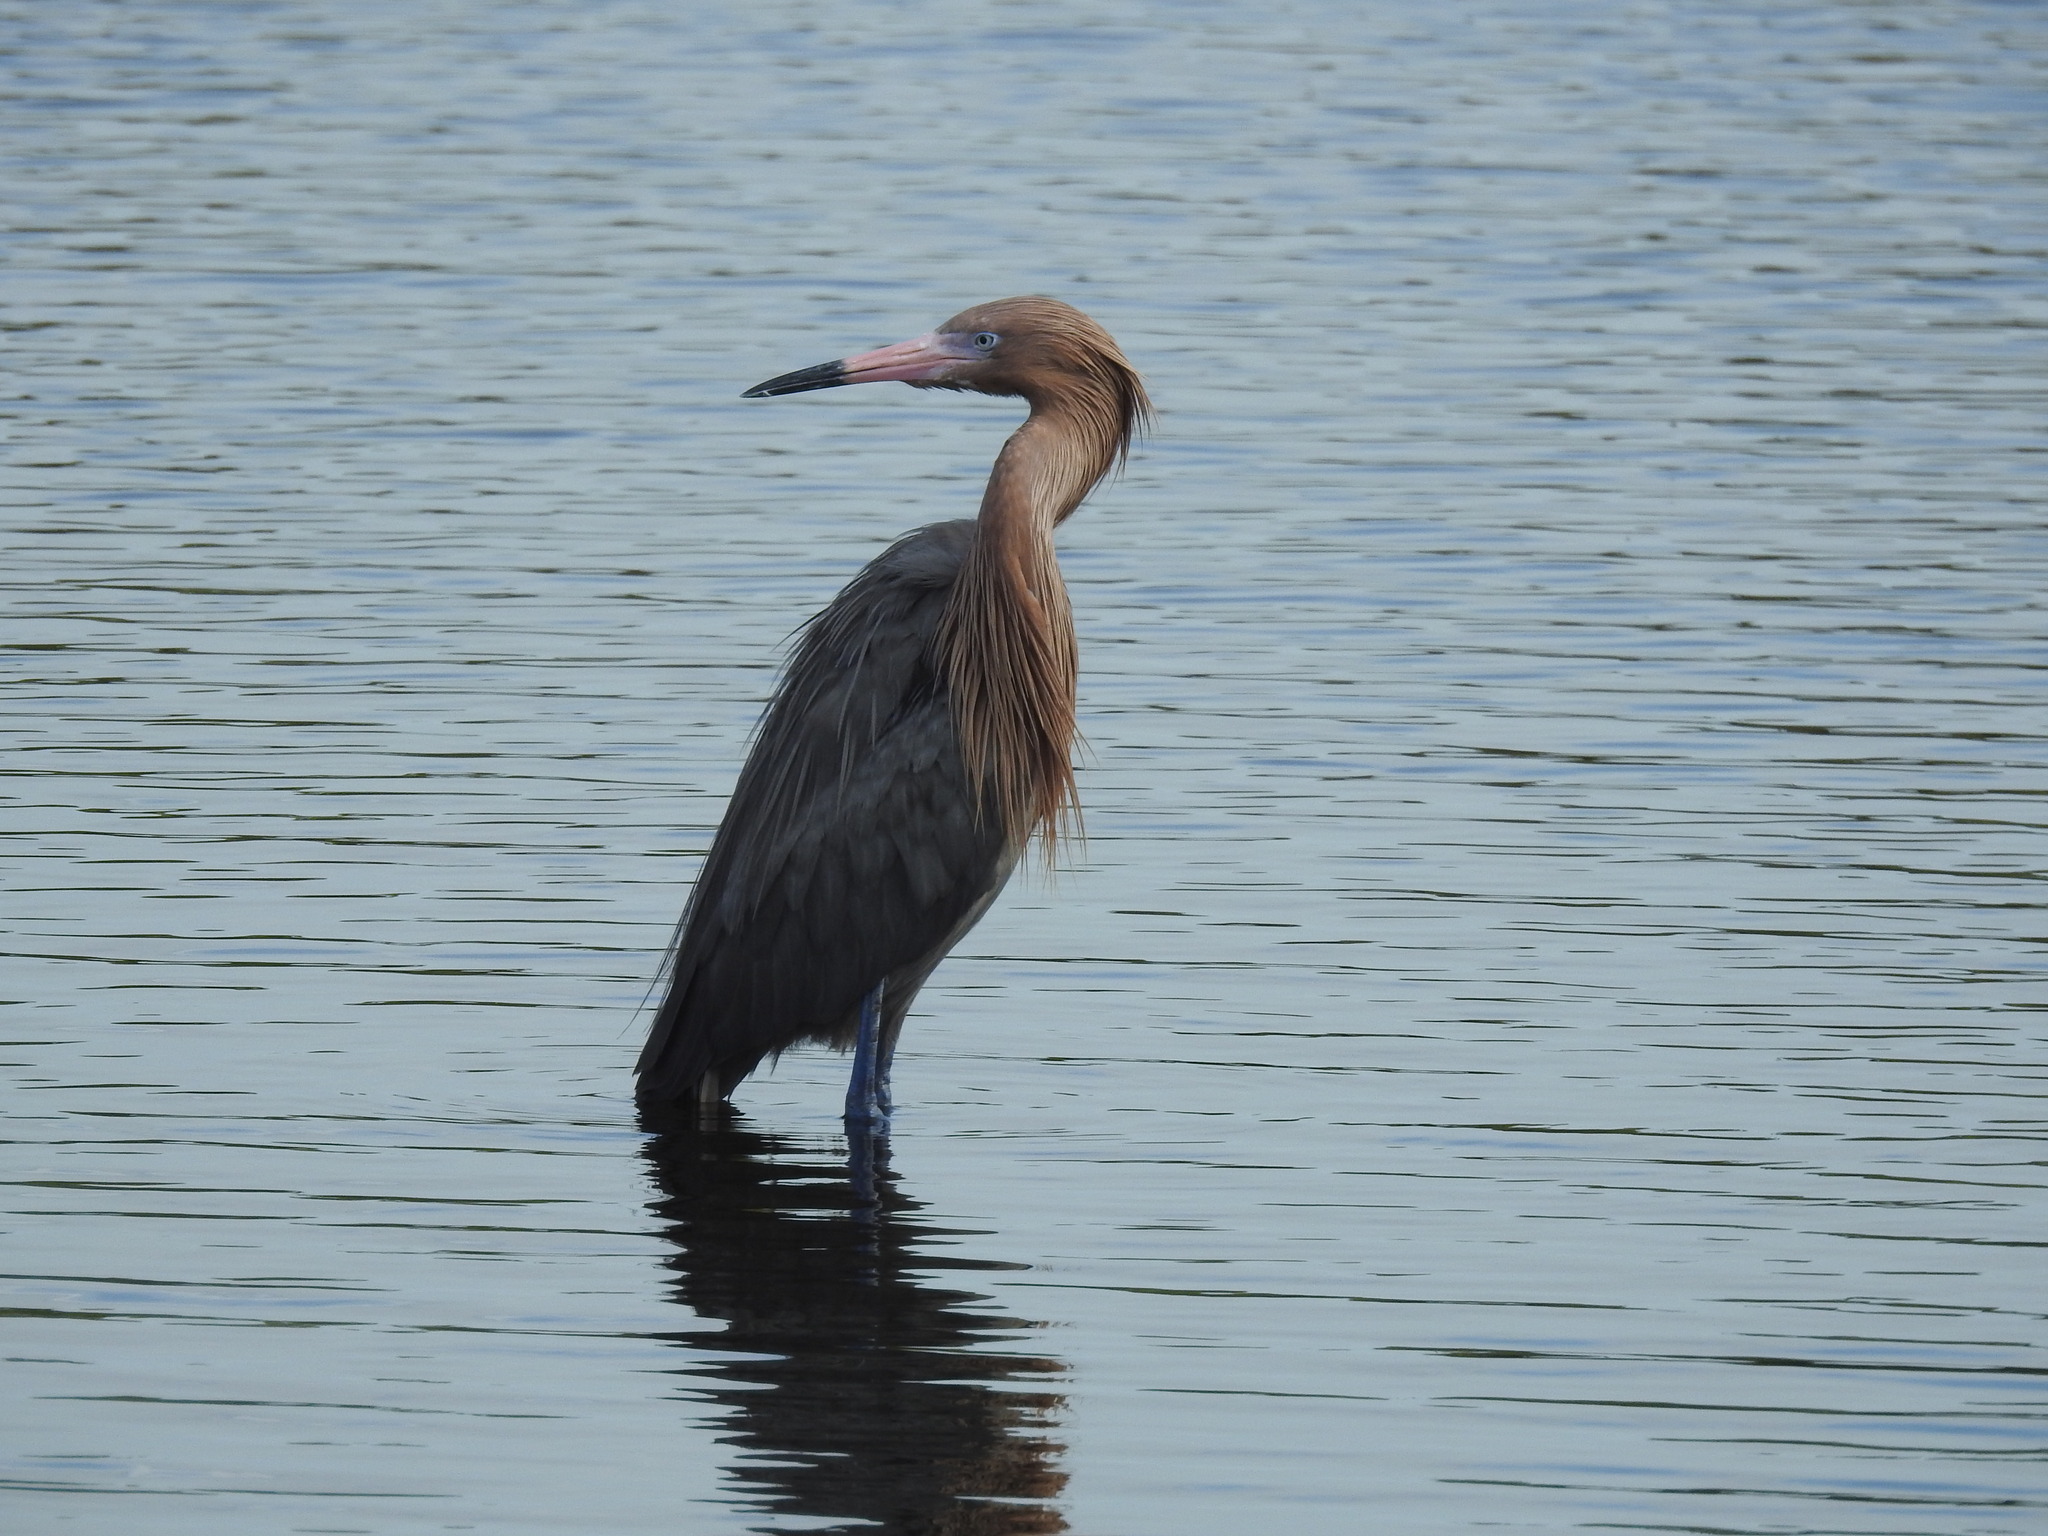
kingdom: Animalia
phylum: Chordata
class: Aves
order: Pelecaniformes
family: Ardeidae
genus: Egretta
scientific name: Egretta rufescens
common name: Reddish egret
